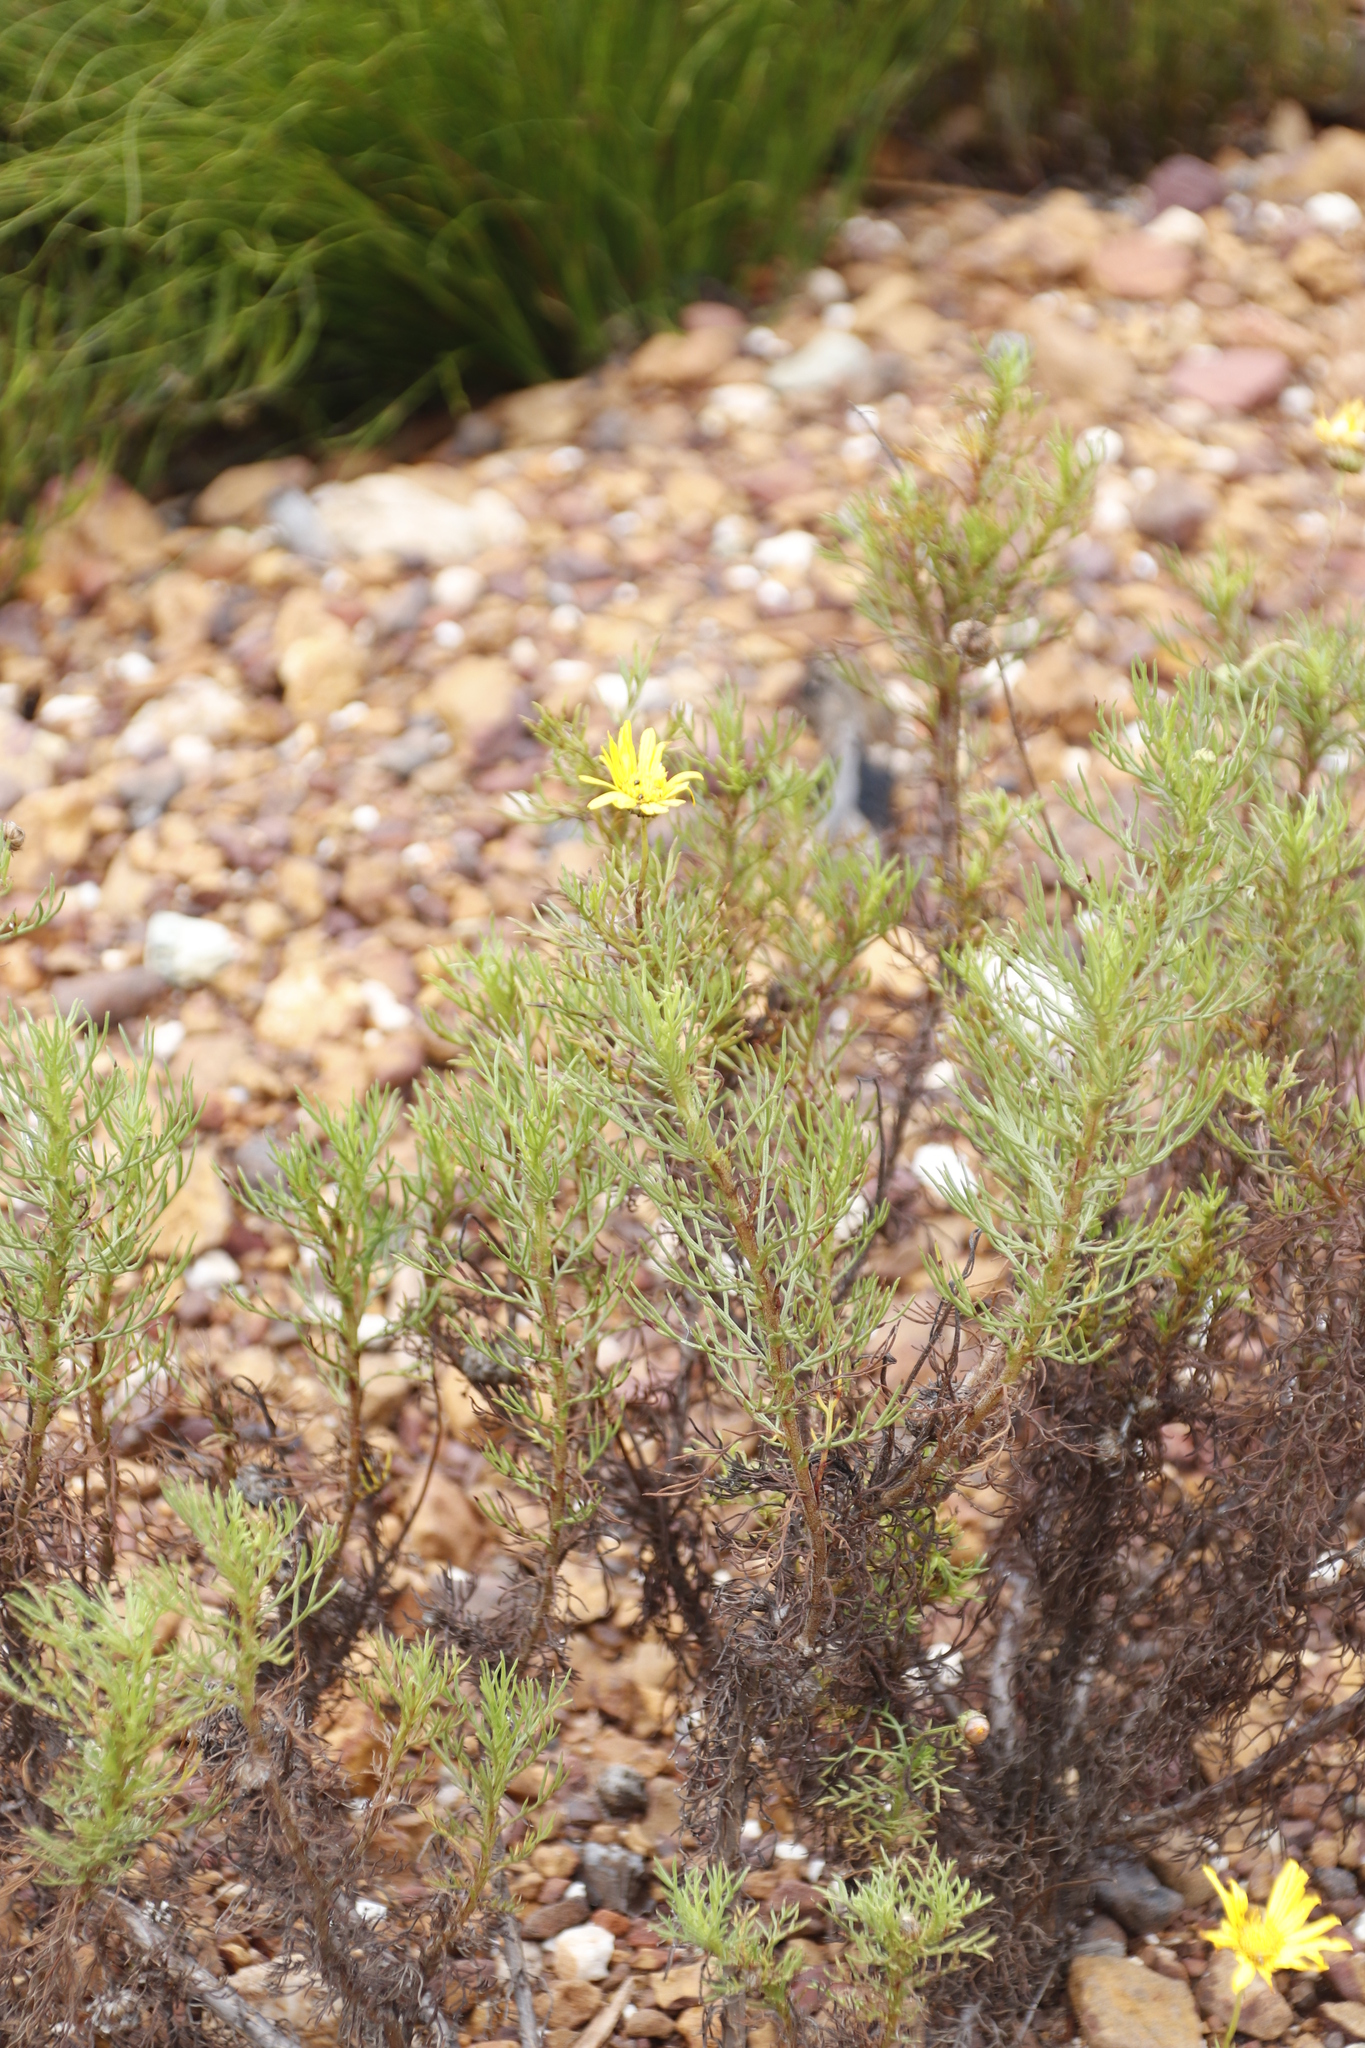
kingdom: Plantae
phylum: Tracheophyta
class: Magnoliopsida
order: Asterales
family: Asteraceae
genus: Euryops
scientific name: Euryops abrotanifolius
